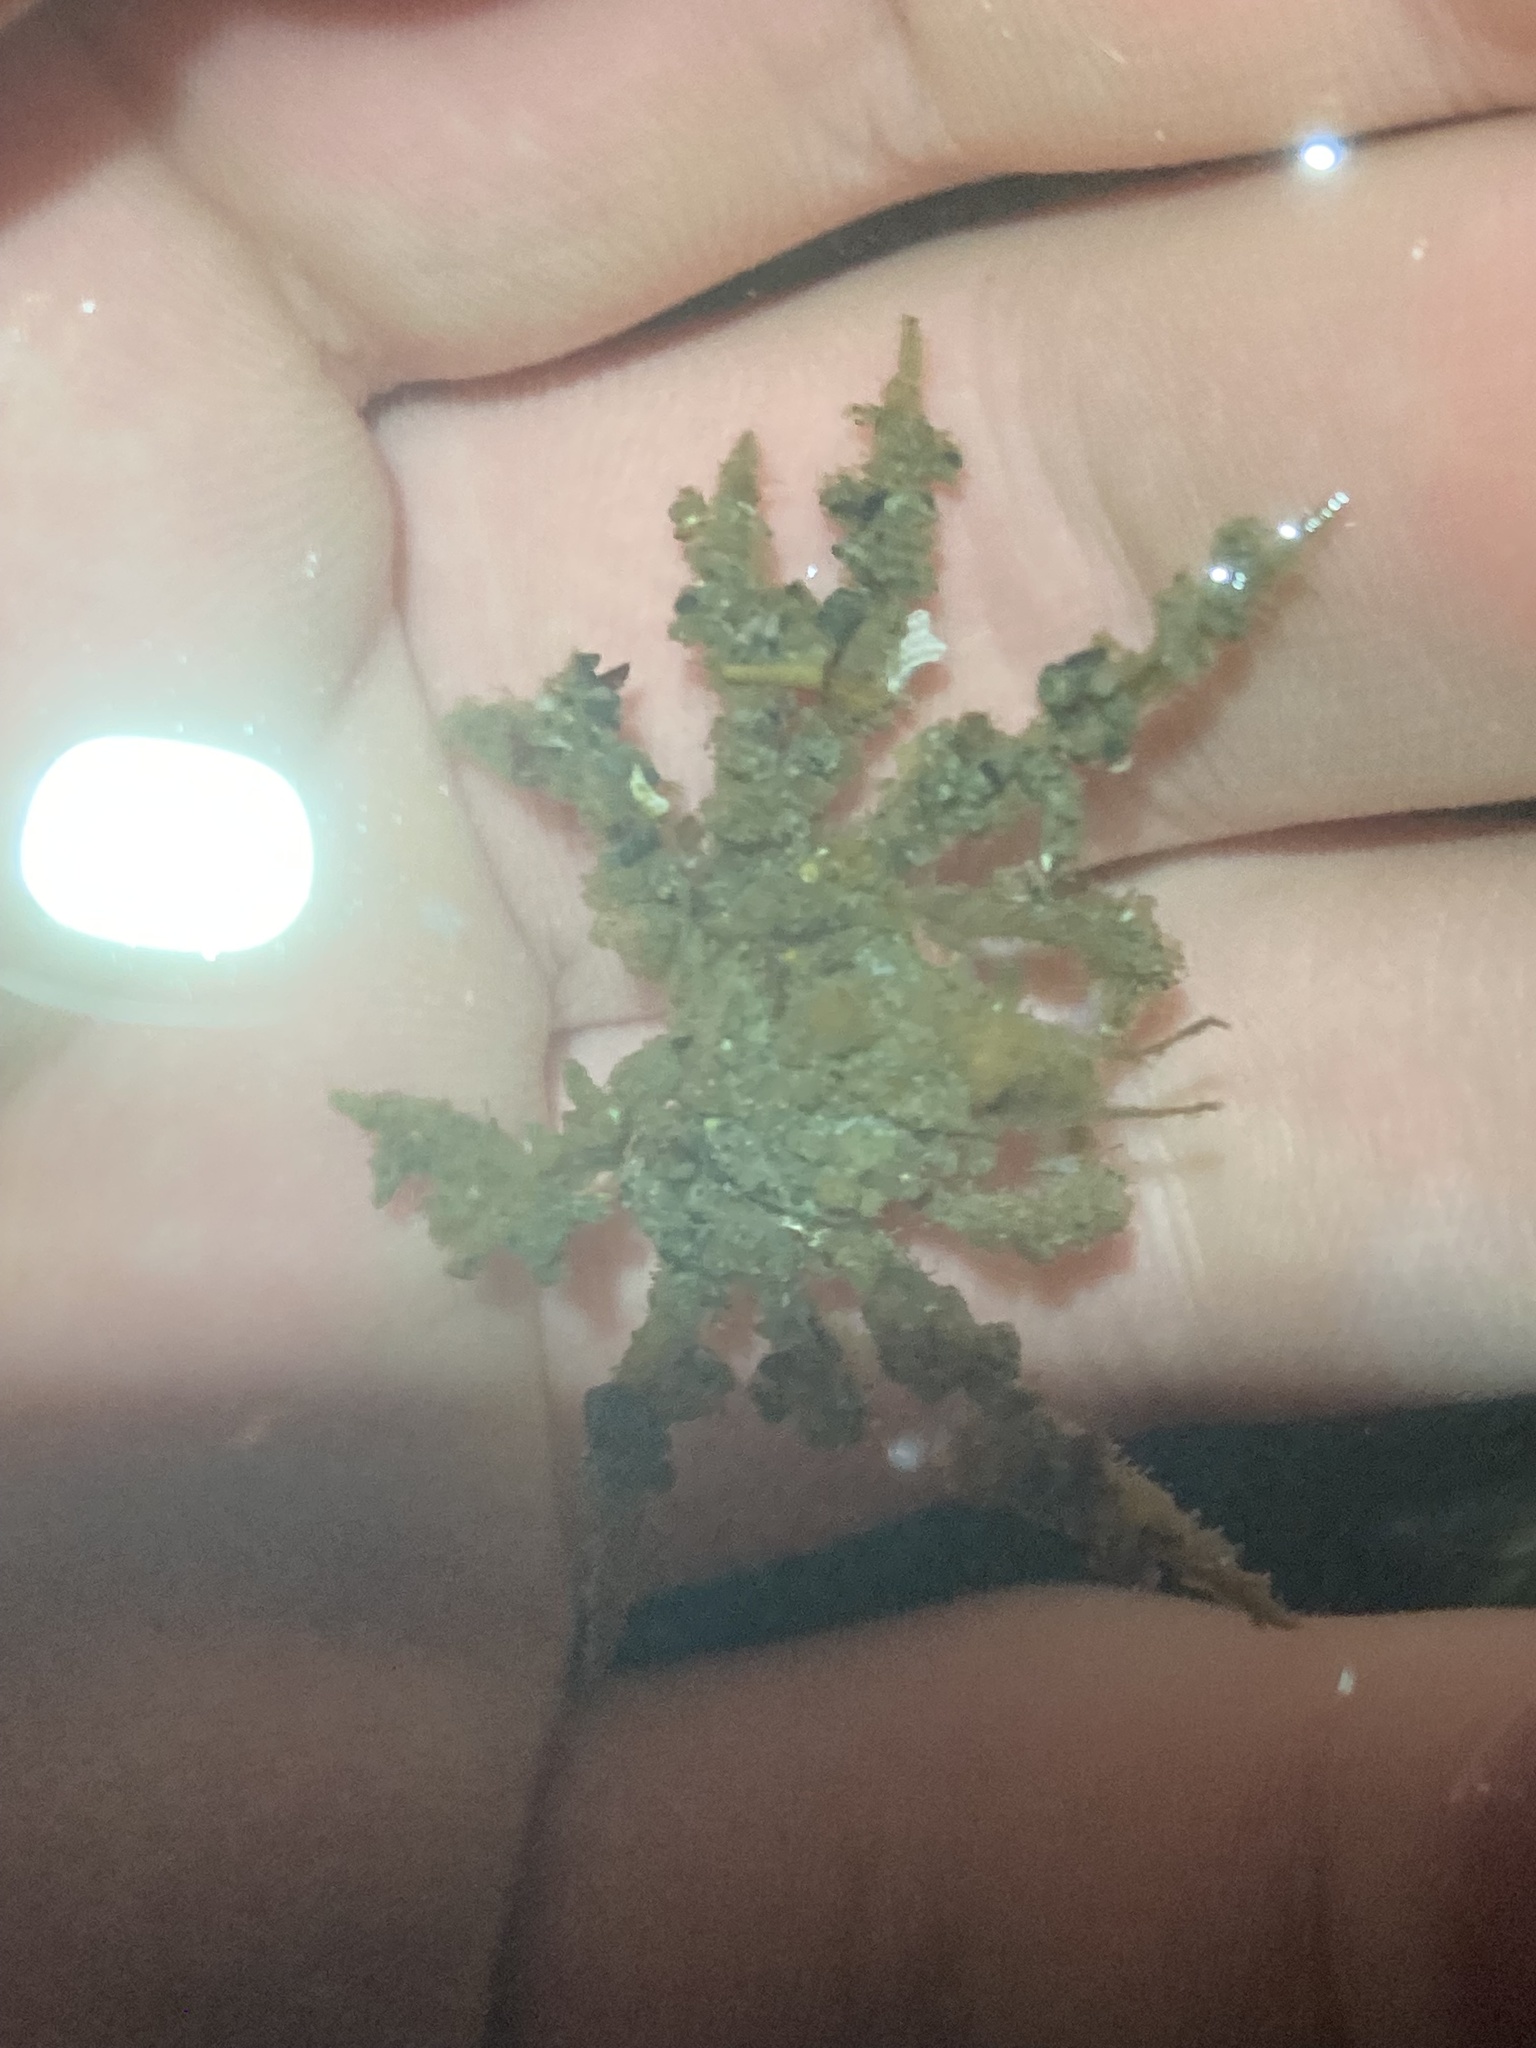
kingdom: Animalia
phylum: Arthropoda
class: Malacostraca
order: Decapoda
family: Oregoniidae
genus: Oregonia
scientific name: Oregonia gracilis
